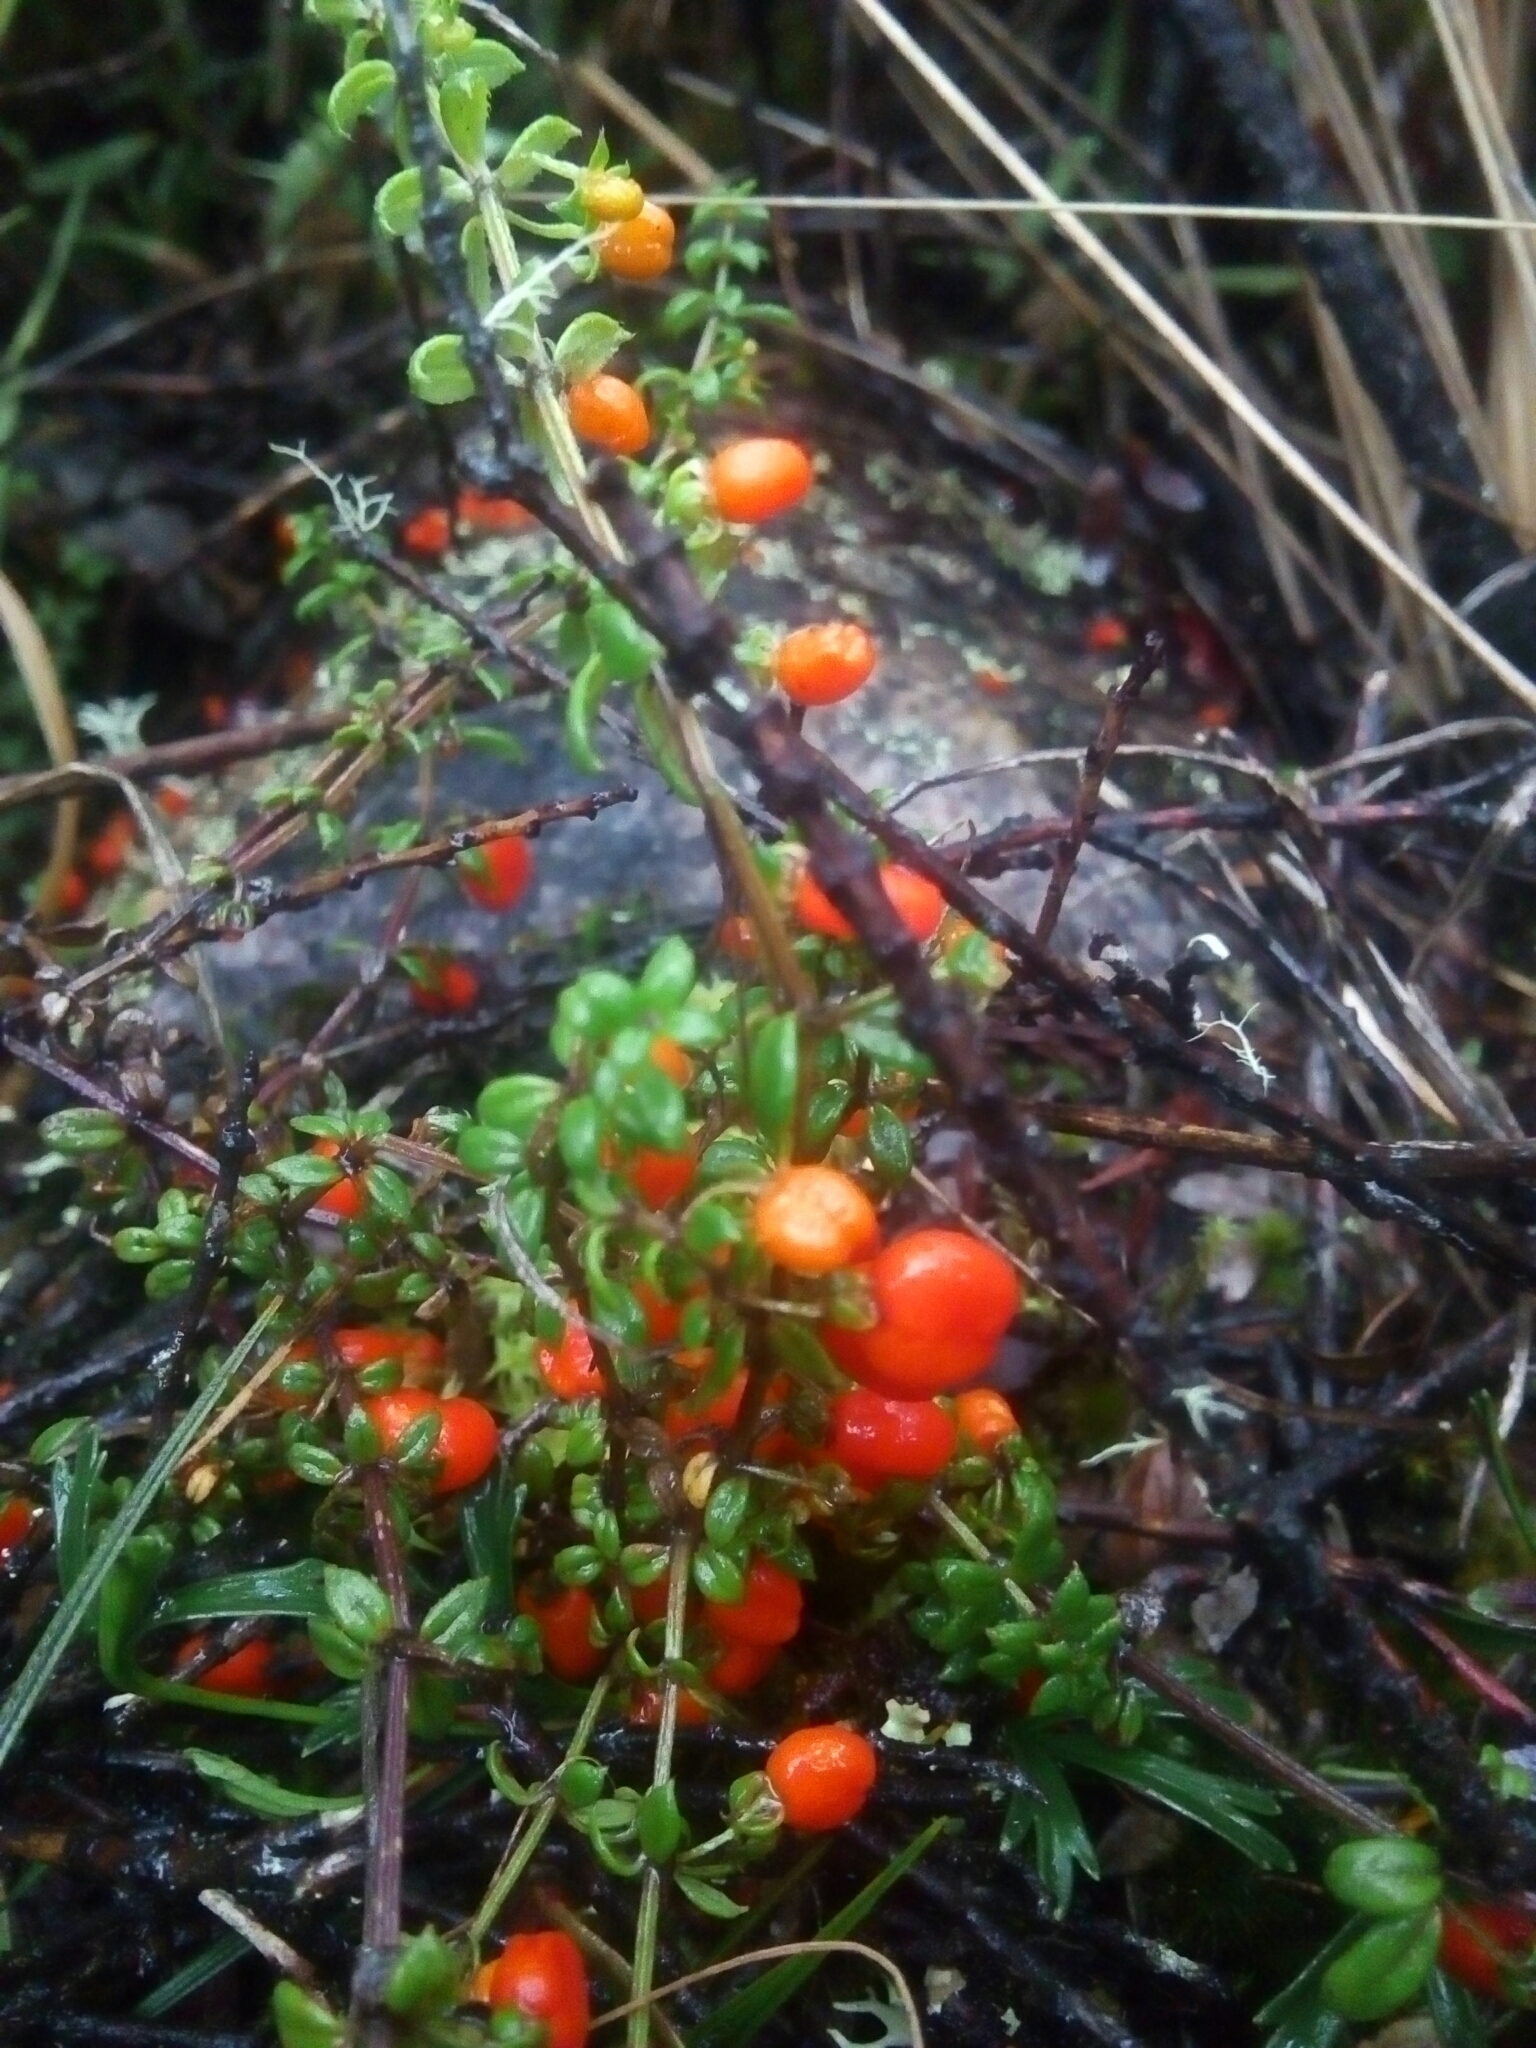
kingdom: Plantae
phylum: Tracheophyta
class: Magnoliopsida
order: Gentianales
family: Rubiaceae
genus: Galium
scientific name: Galium hypocarpium
